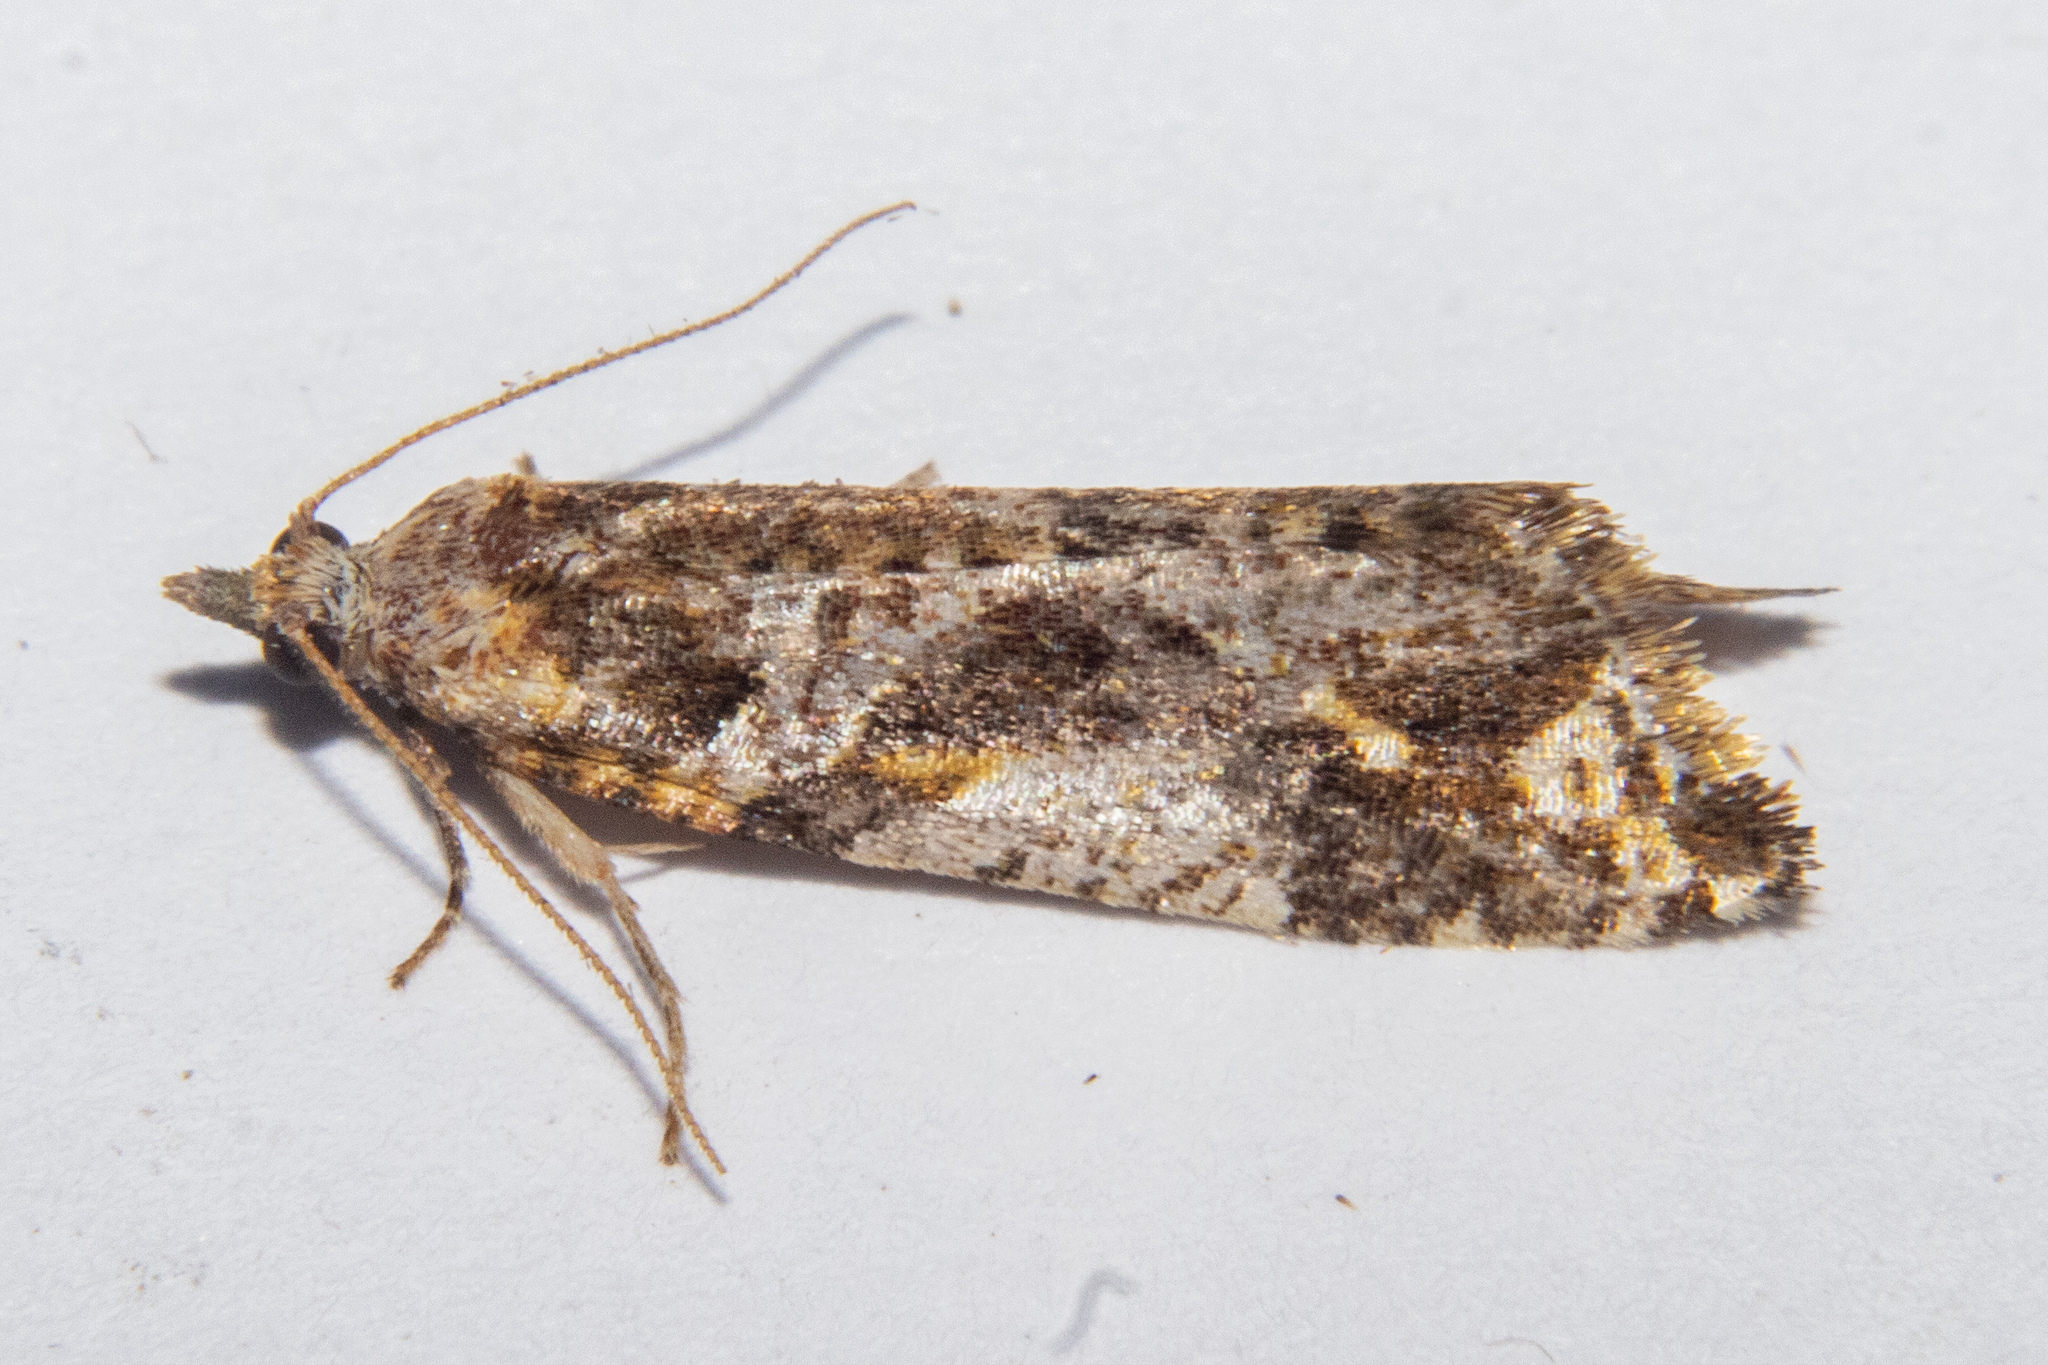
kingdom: Animalia
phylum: Arthropoda
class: Insecta
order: Lepidoptera
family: Tortricidae
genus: Pyrgotis
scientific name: Pyrgotis plagiatana
